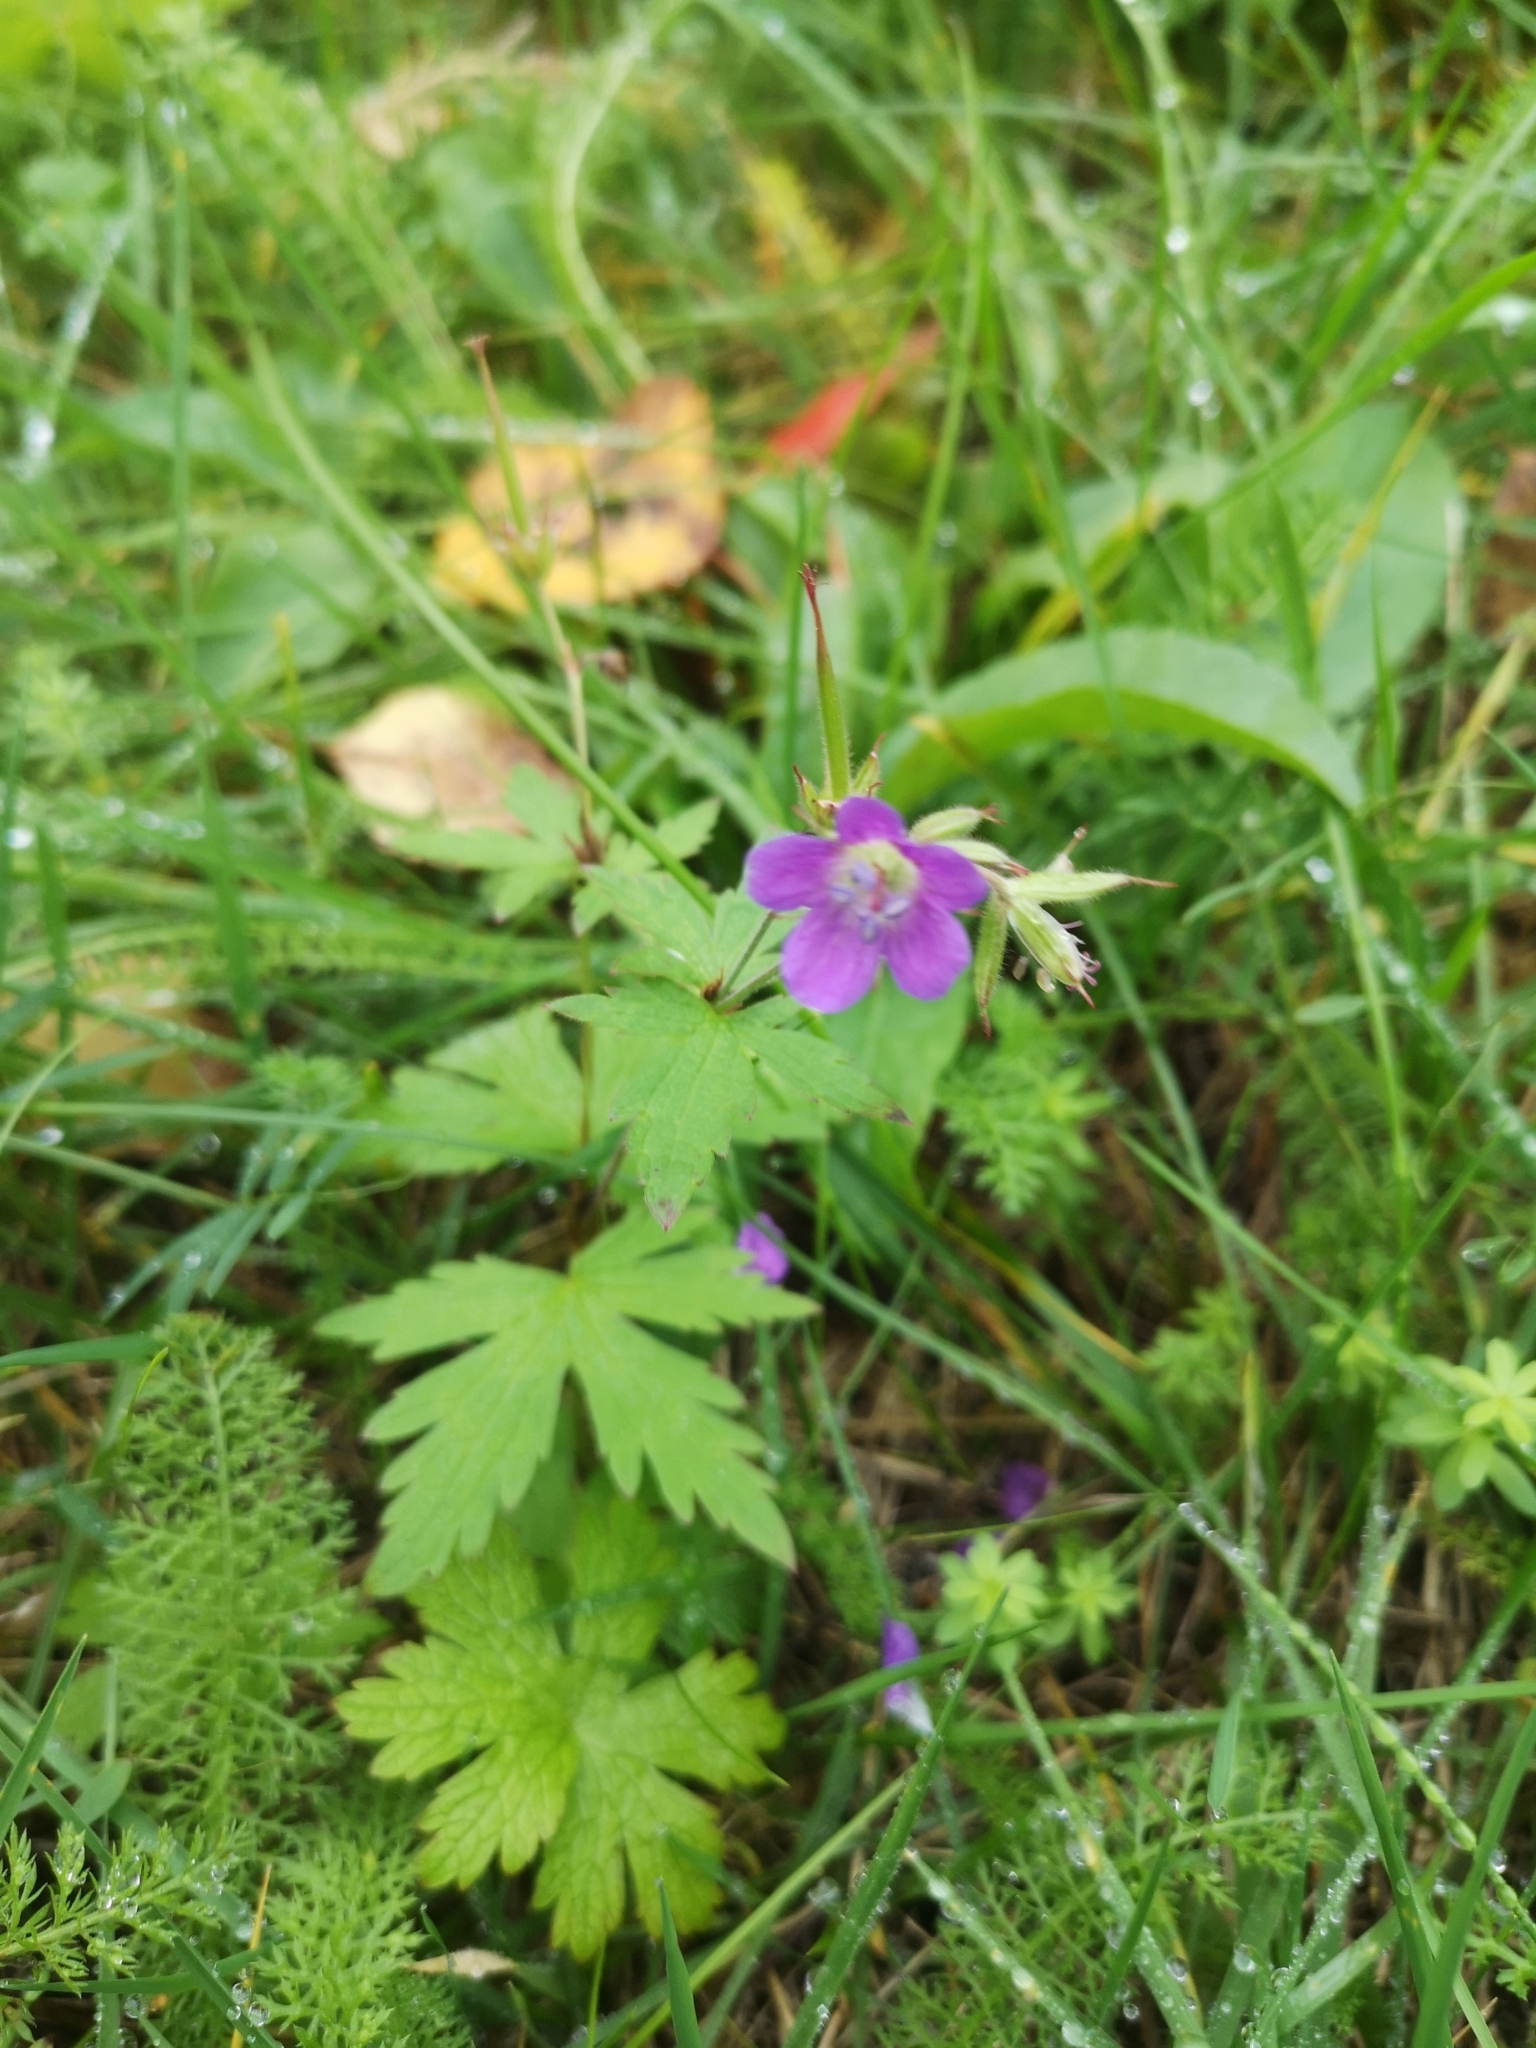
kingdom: Plantae
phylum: Tracheophyta
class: Magnoliopsida
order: Geraniales
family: Geraniaceae
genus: Geranium
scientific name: Geranium sylvaticum
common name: Wood crane's-bill
